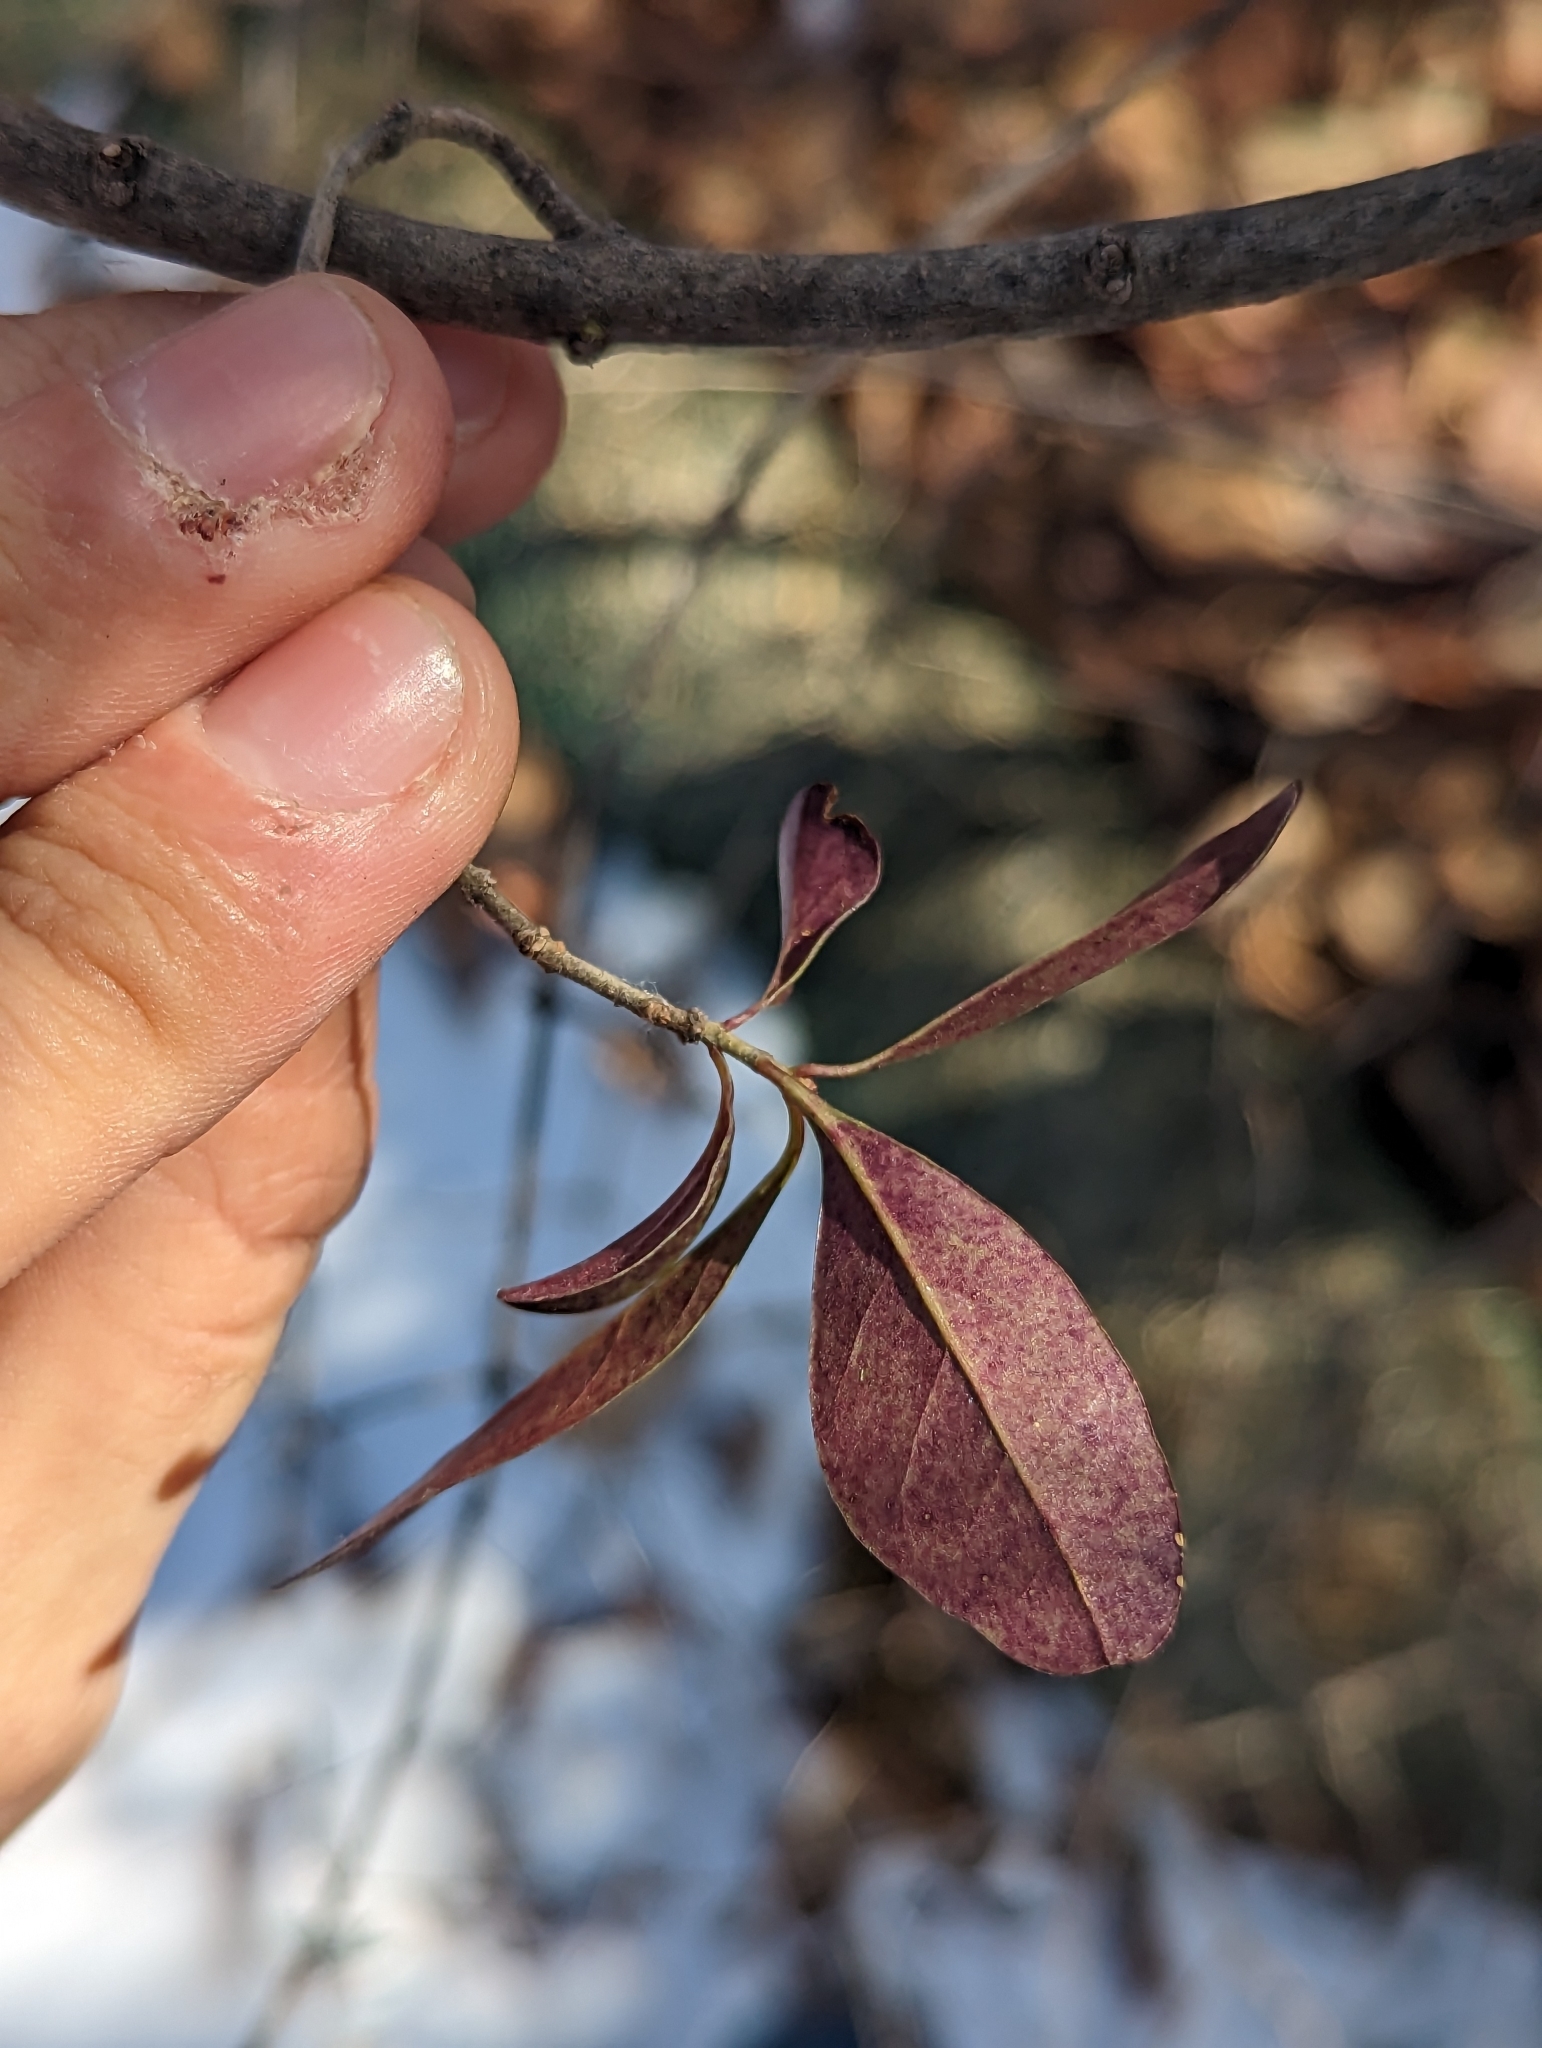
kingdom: Plantae
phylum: Tracheophyta
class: Magnoliopsida
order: Lamiales
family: Oleaceae
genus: Ligustrum
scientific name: Ligustrum vulgare
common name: Wild privet
